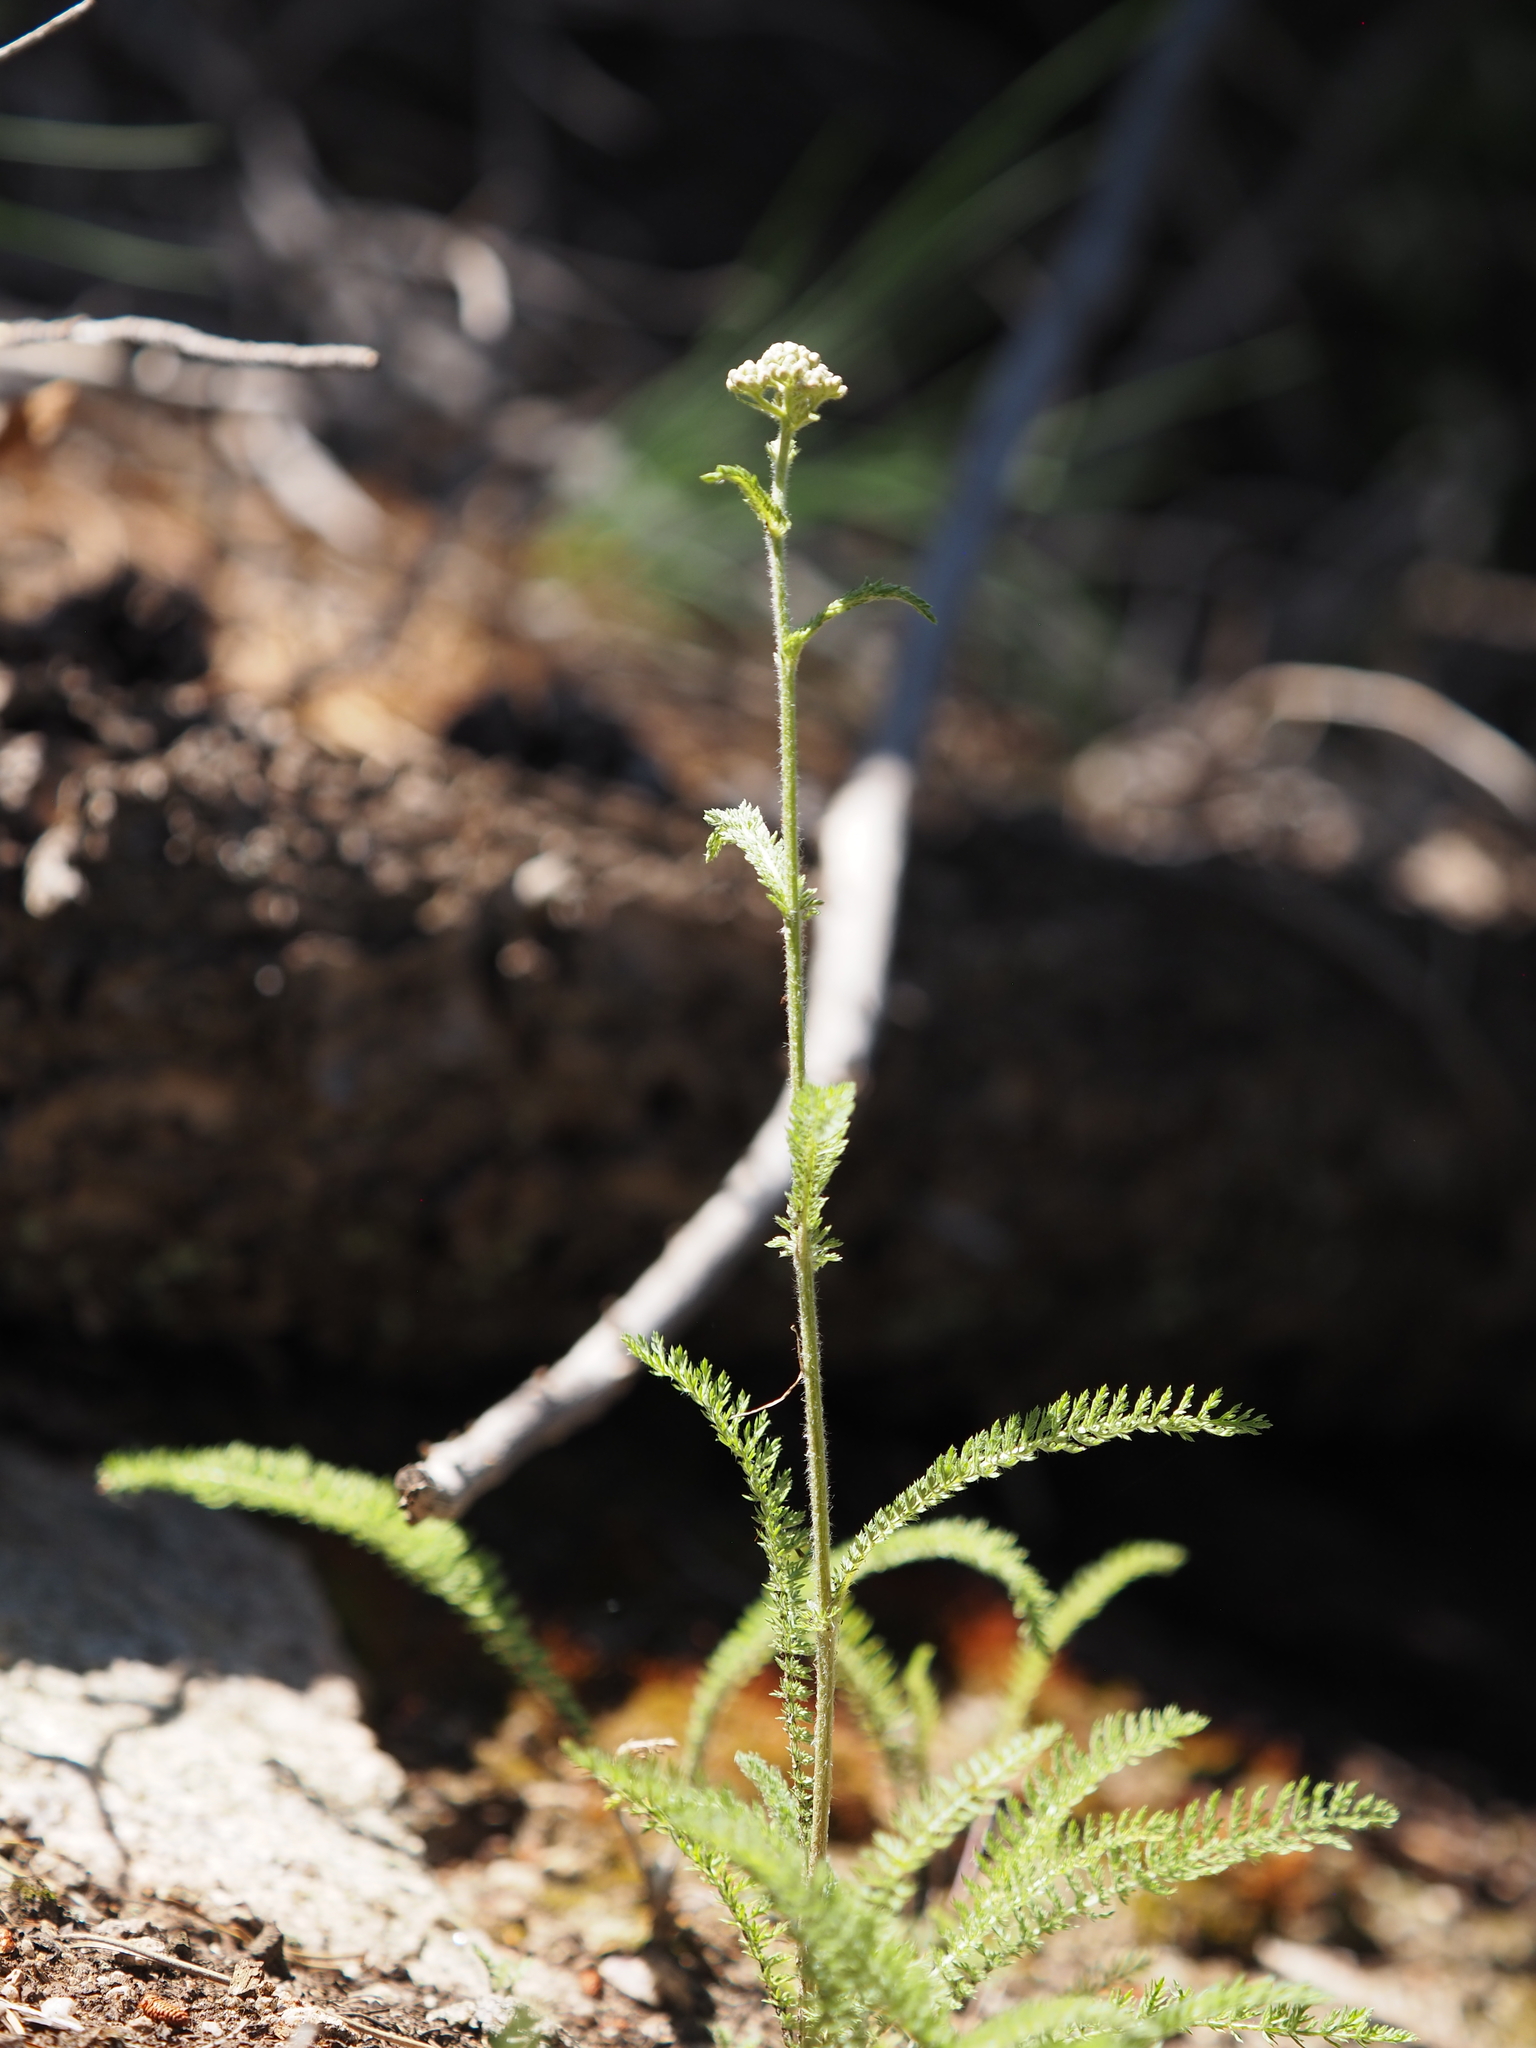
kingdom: Plantae
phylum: Tracheophyta
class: Magnoliopsida
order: Asterales
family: Asteraceae
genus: Achillea
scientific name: Achillea millefolium
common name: Yarrow
